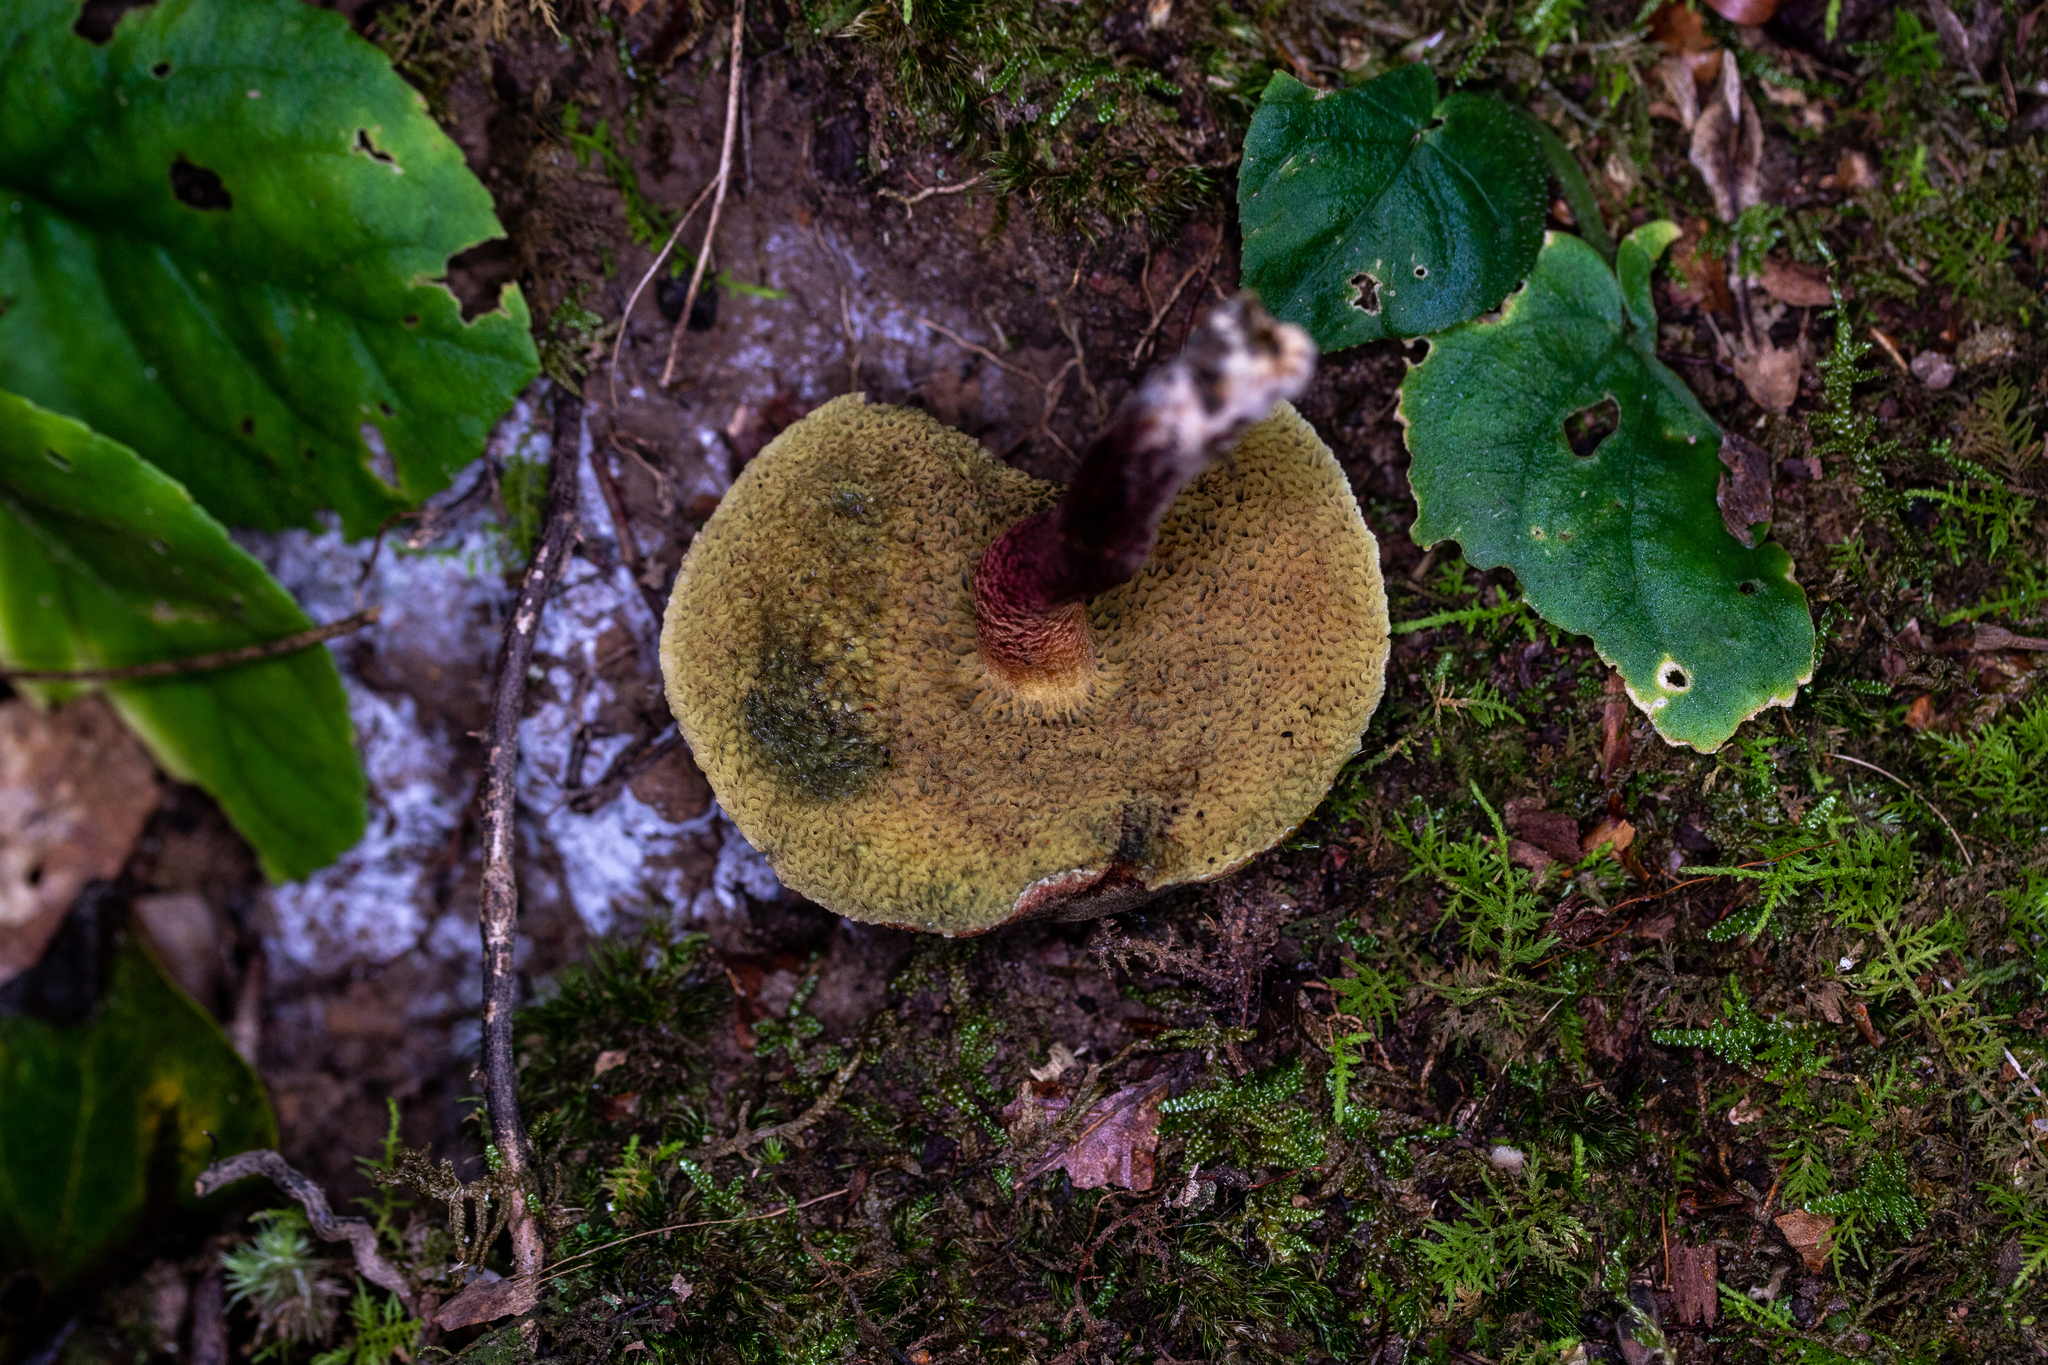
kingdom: Fungi
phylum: Basidiomycota
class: Agaricomycetes
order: Boletales
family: Boletaceae
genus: Xerocomellus
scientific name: Xerocomellus chrysenteron
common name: Red-cracking bolete
